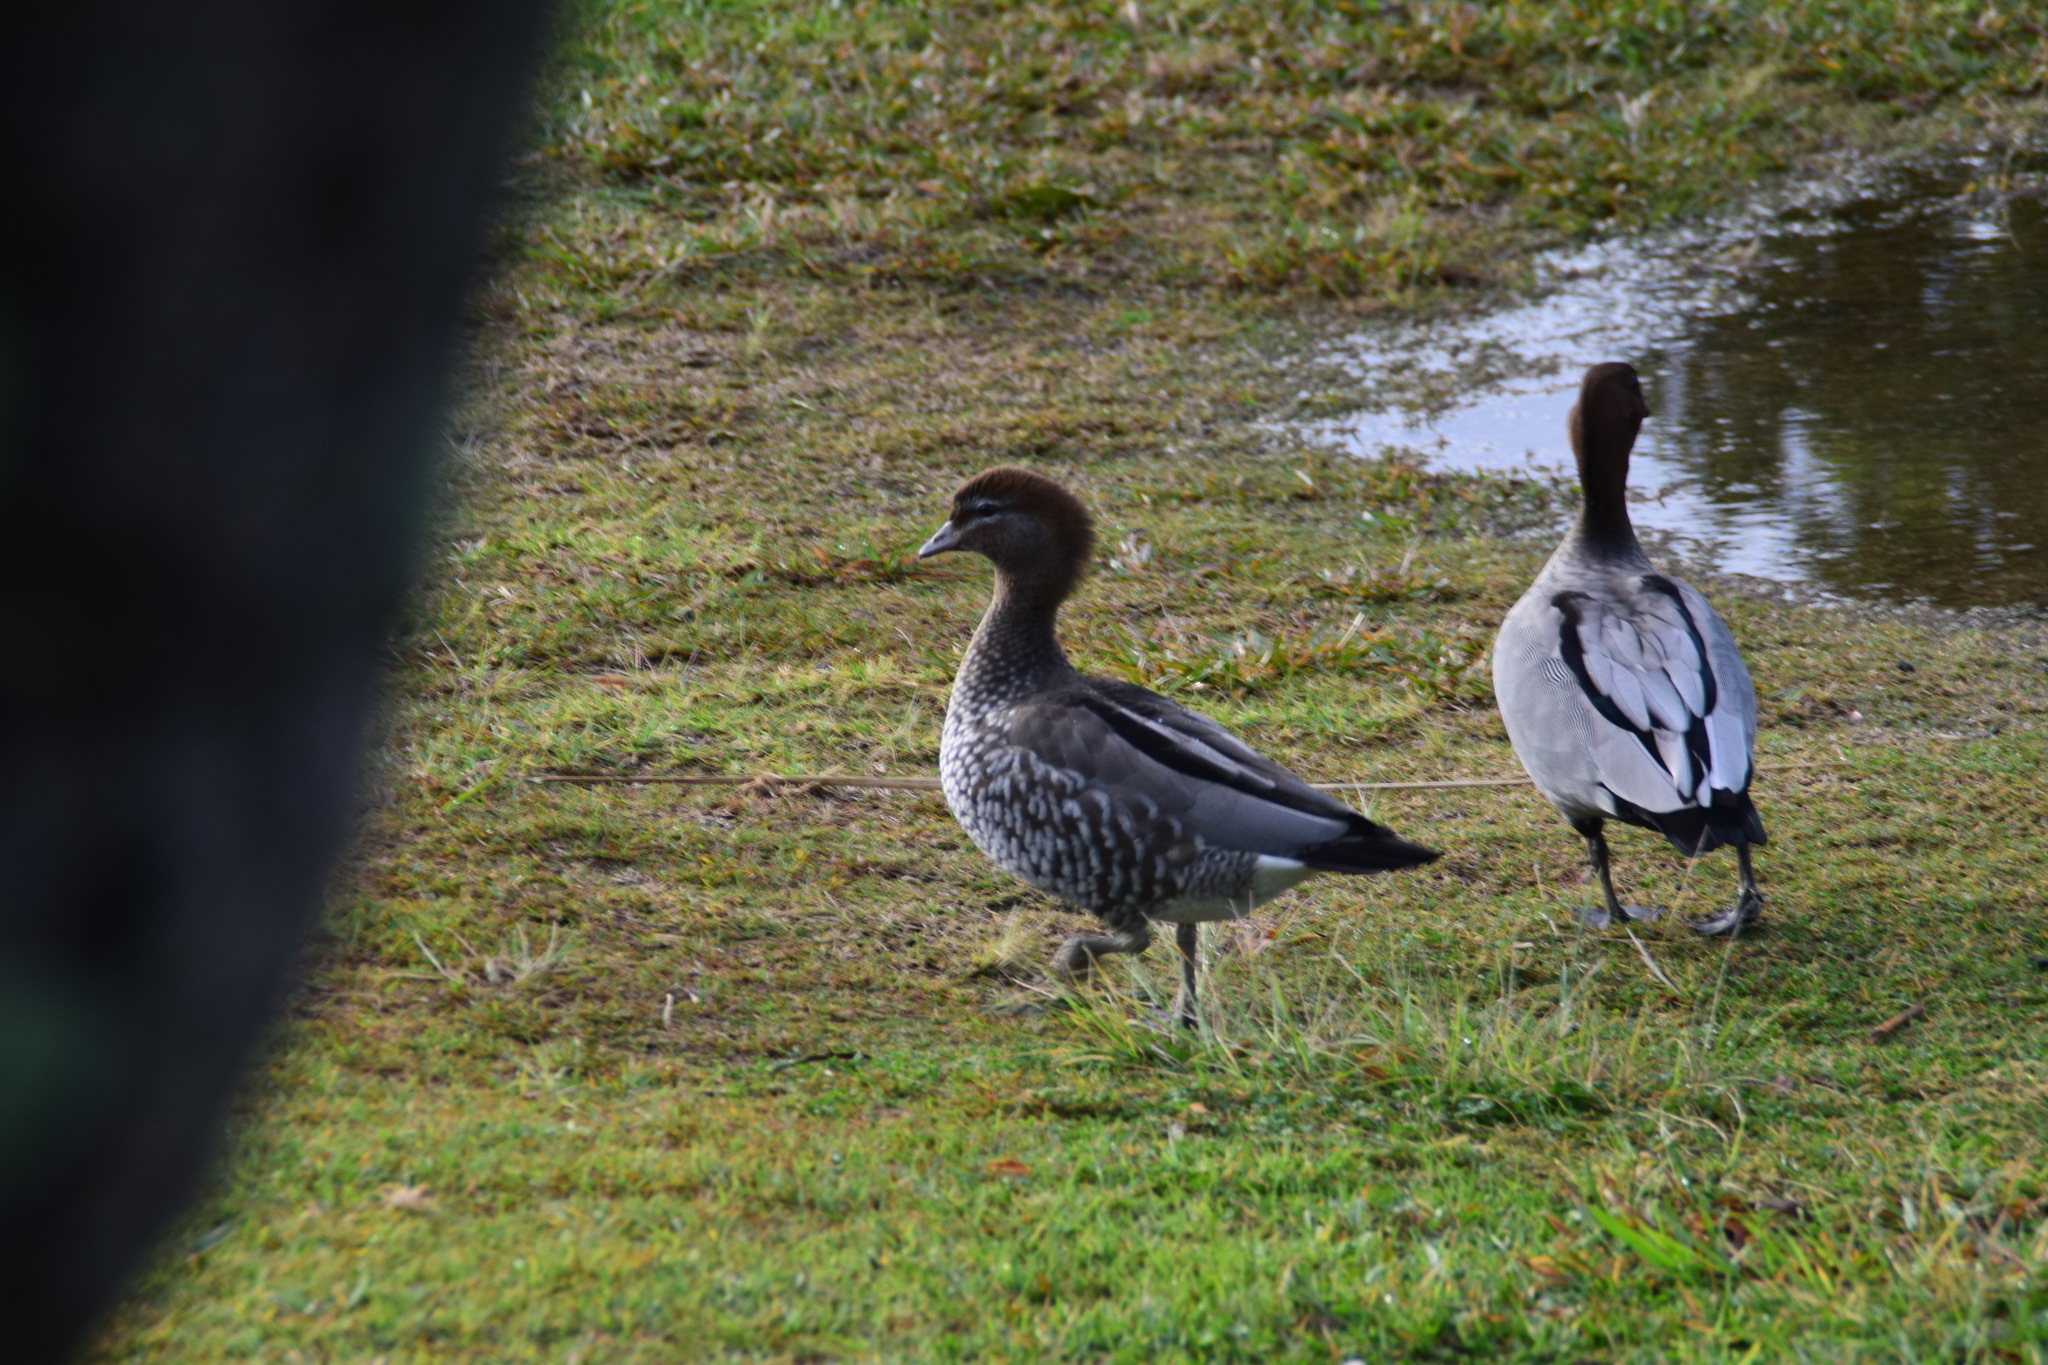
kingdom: Animalia
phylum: Chordata
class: Aves
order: Anseriformes
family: Anatidae
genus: Chenonetta
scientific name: Chenonetta jubata
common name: Maned duck
